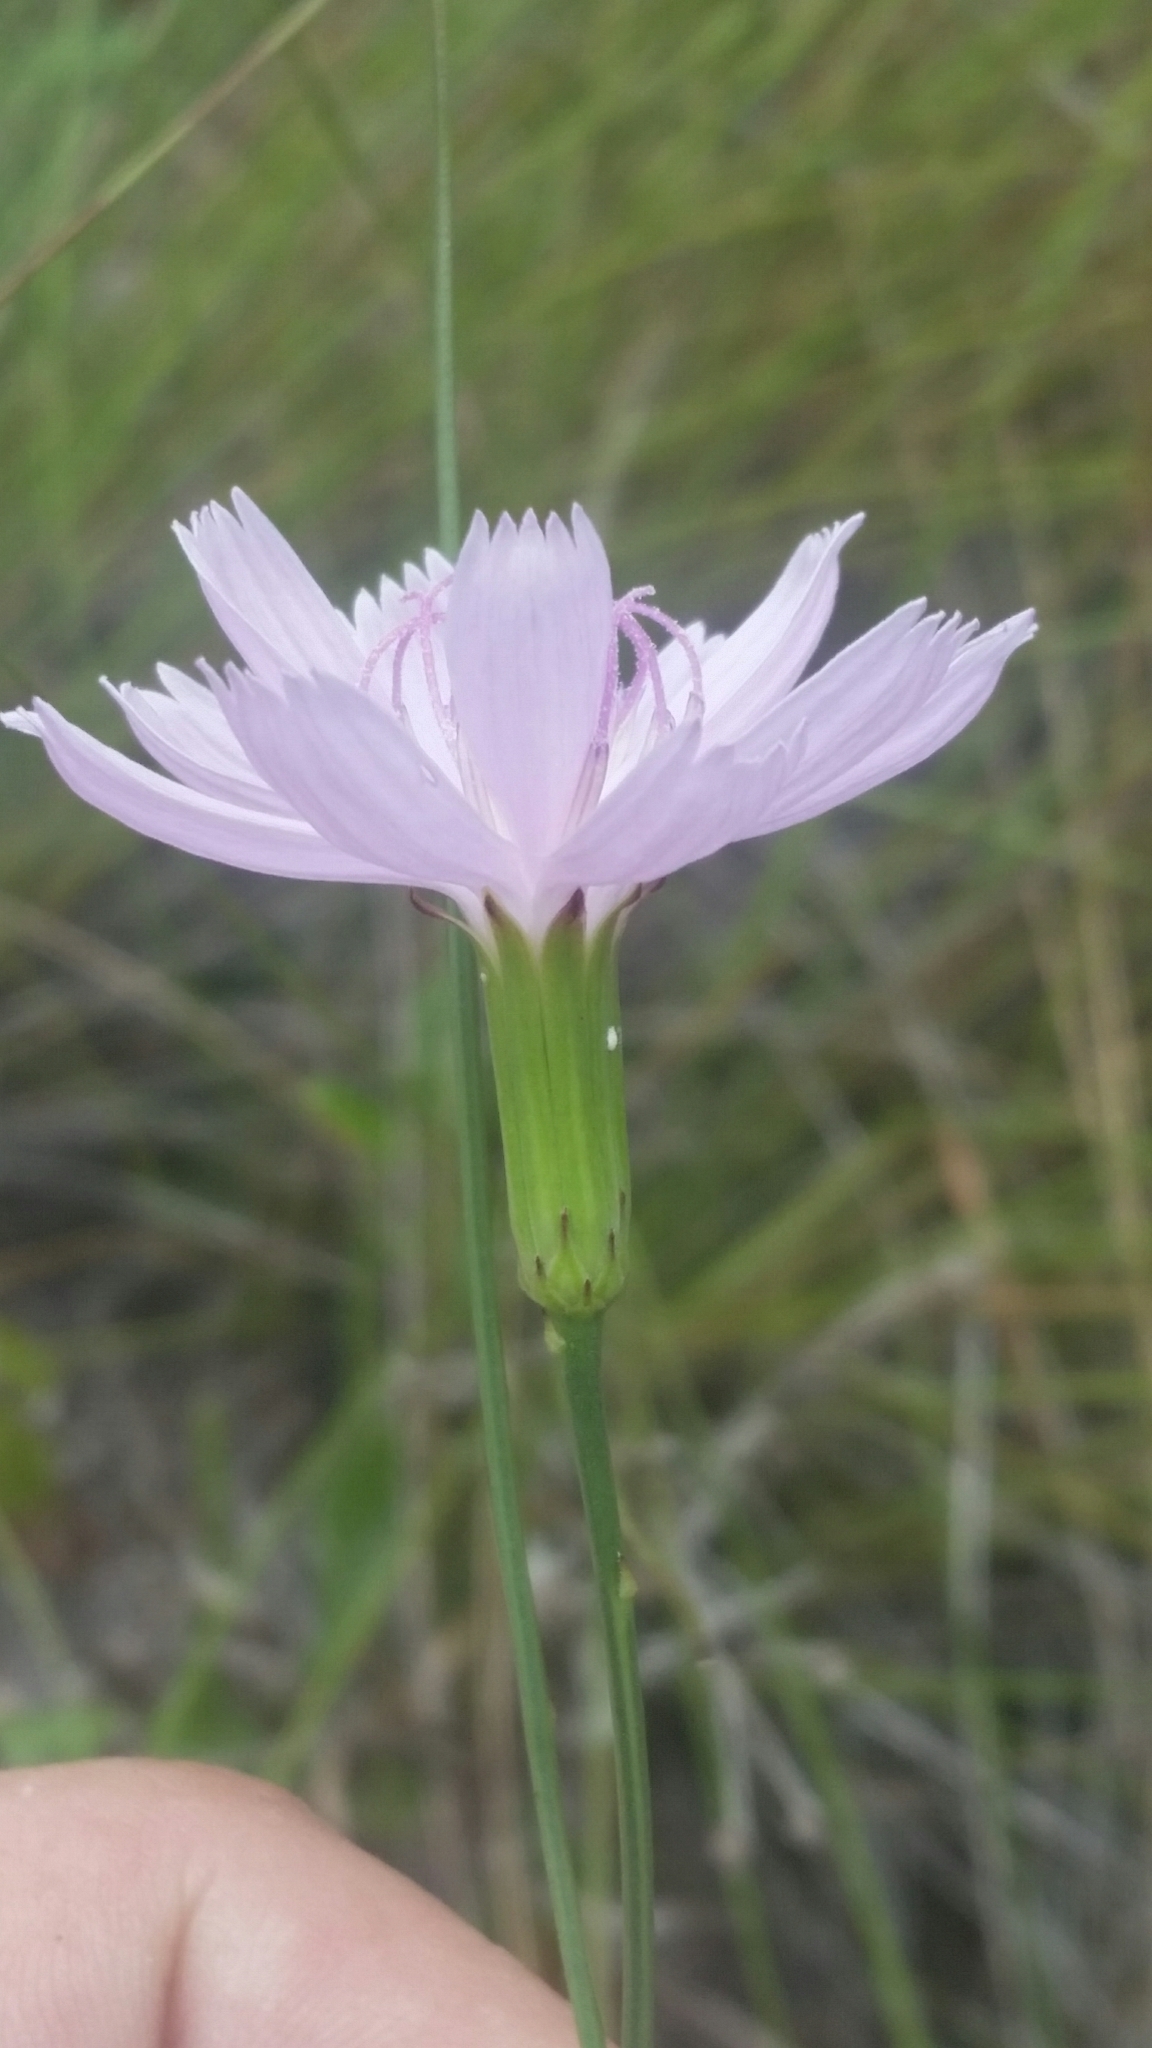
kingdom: Plantae
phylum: Tracheophyta
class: Magnoliopsida
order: Asterales
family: Asteraceae
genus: Lygodesmia
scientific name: Lygodesmia aphylla
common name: Rose-rush
